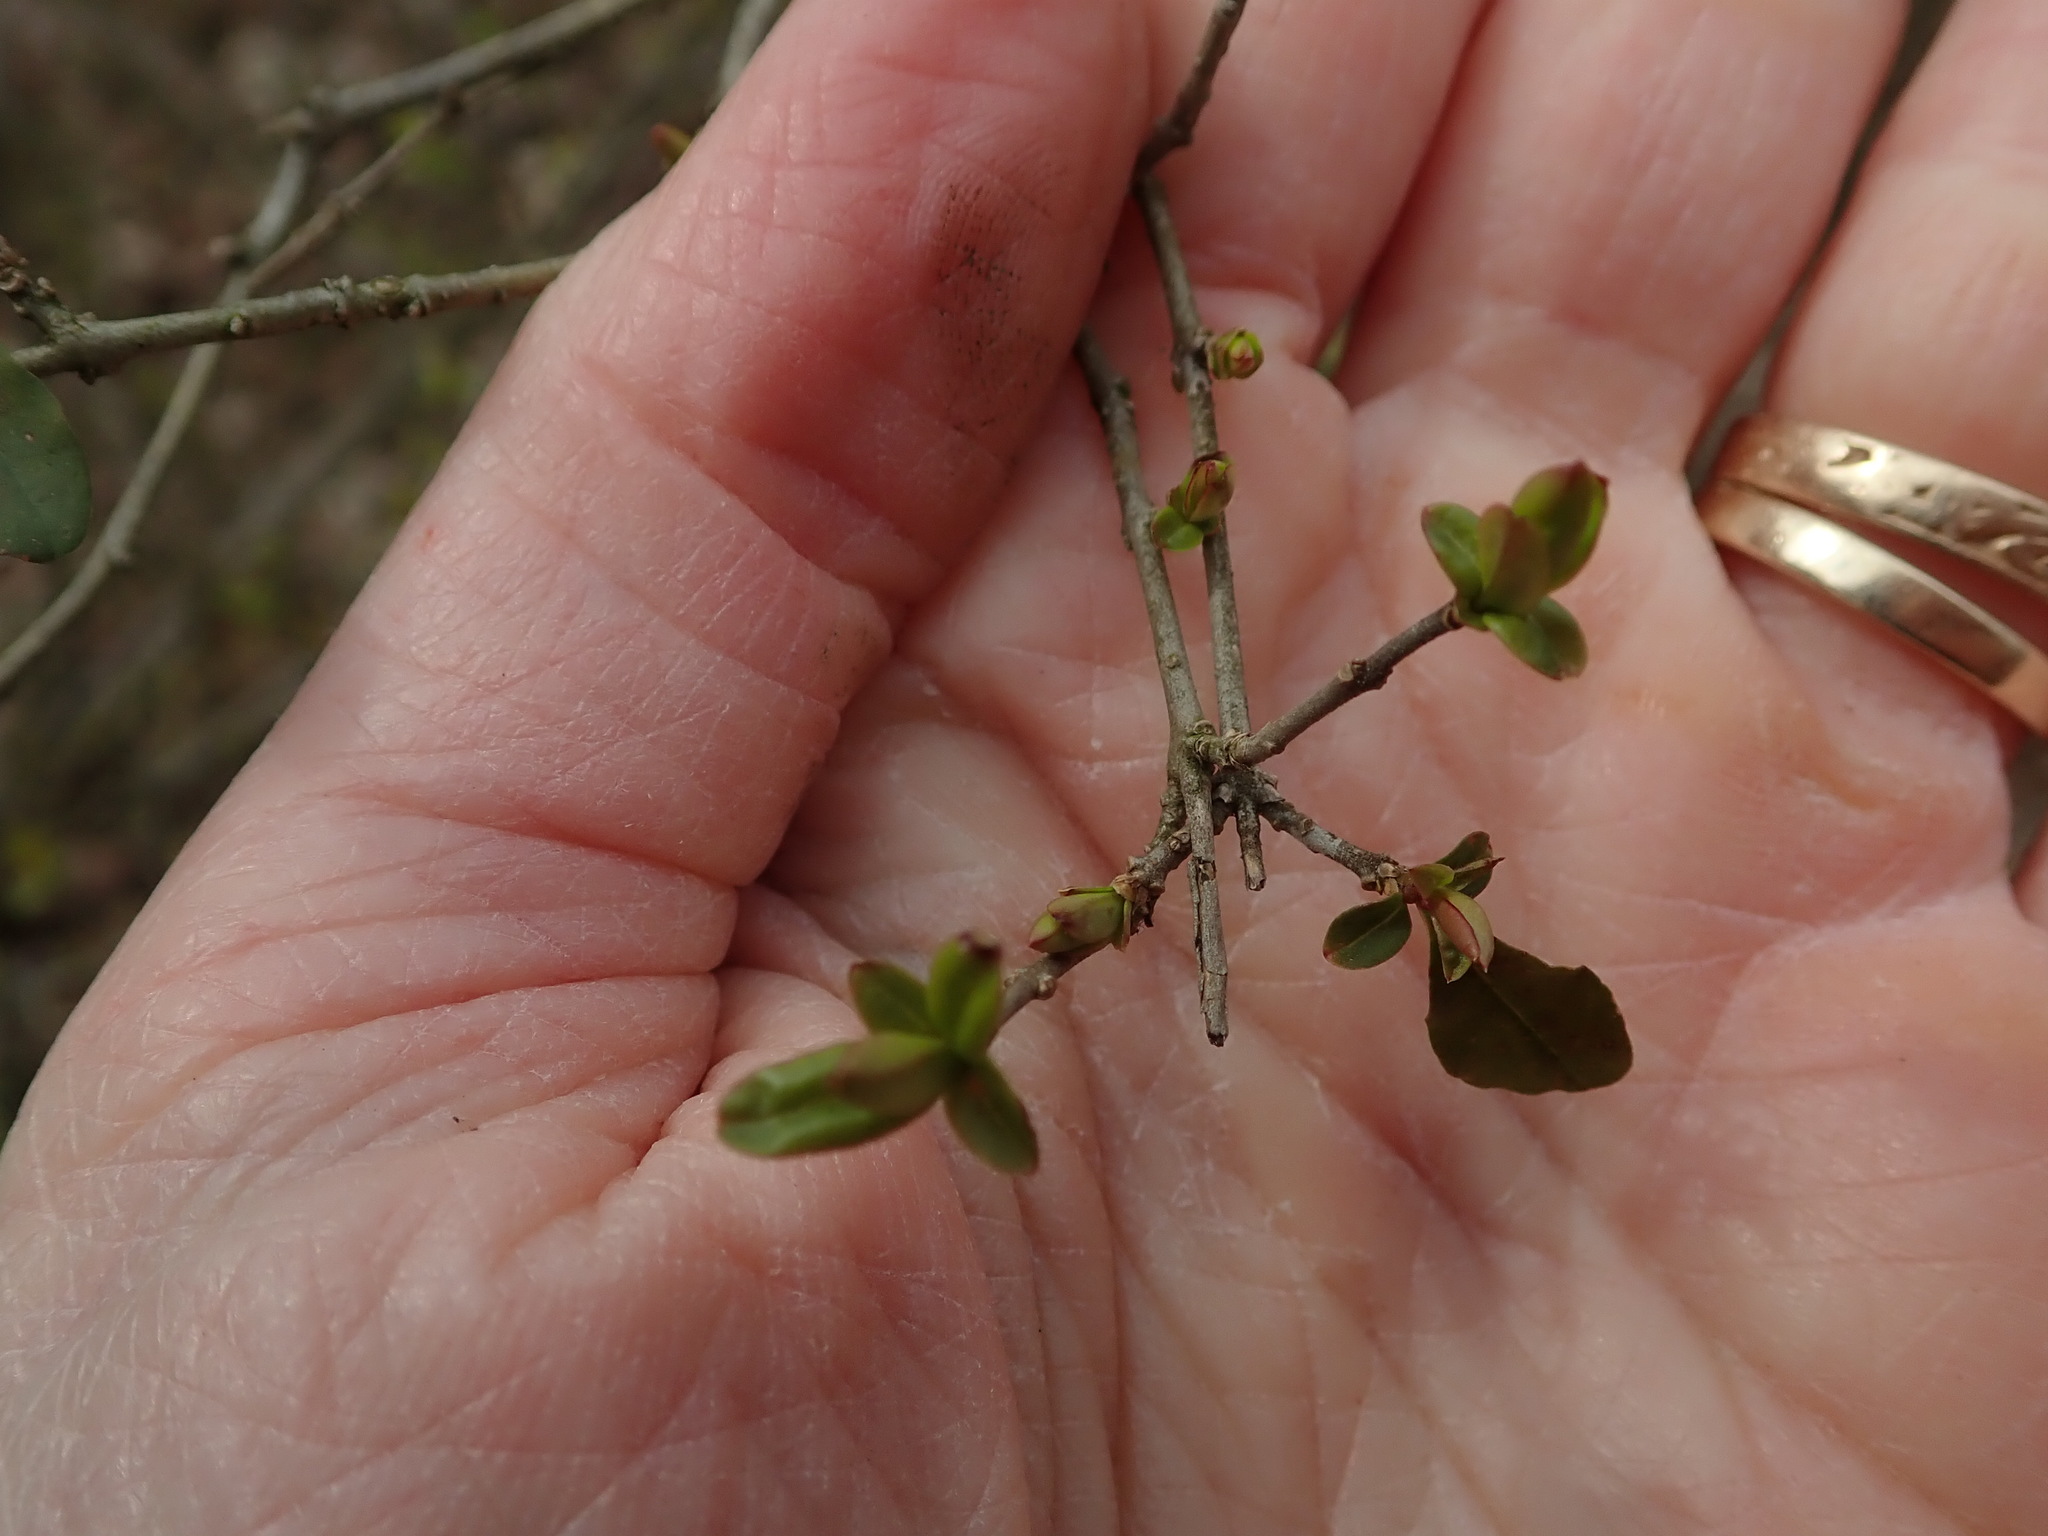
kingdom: Plantae
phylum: Tracheophyta
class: Magnoliopsida
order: Lamiales
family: Oleaceae
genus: Ligustrum
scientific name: Ligustrum obtusifolium
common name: Border privet
